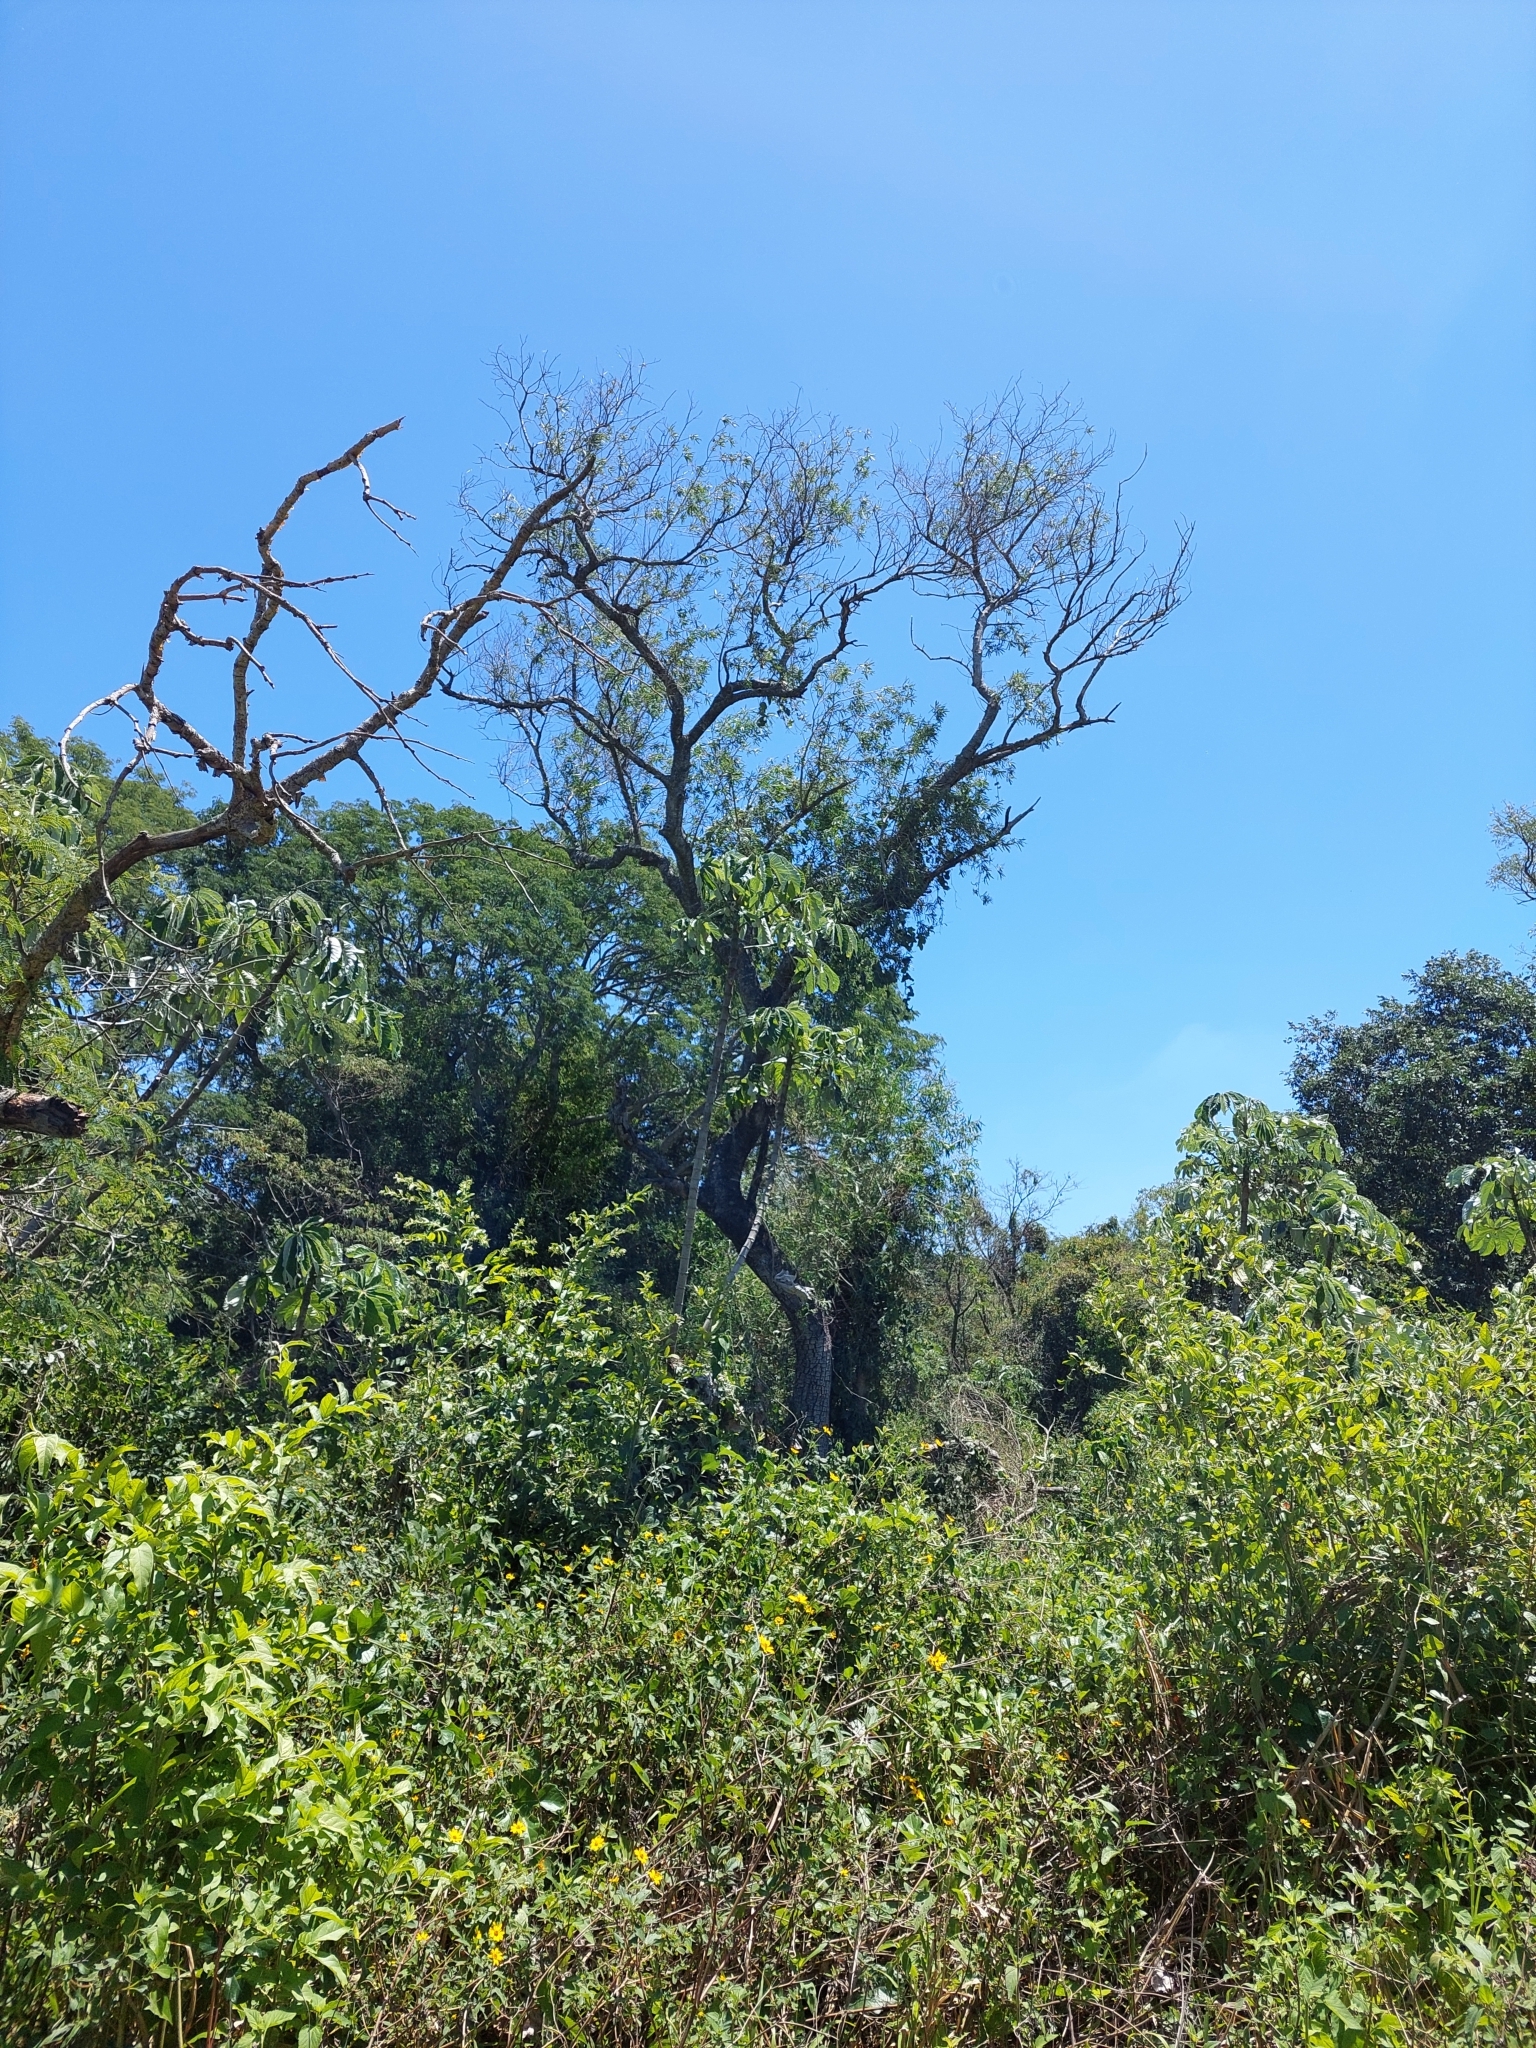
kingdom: Plantae
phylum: Tracheophyta
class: Magnoliopsida
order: Rosales
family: Urticaceae
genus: Cecropia
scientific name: Cecropia pachystachya
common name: Ambay pumpwood
